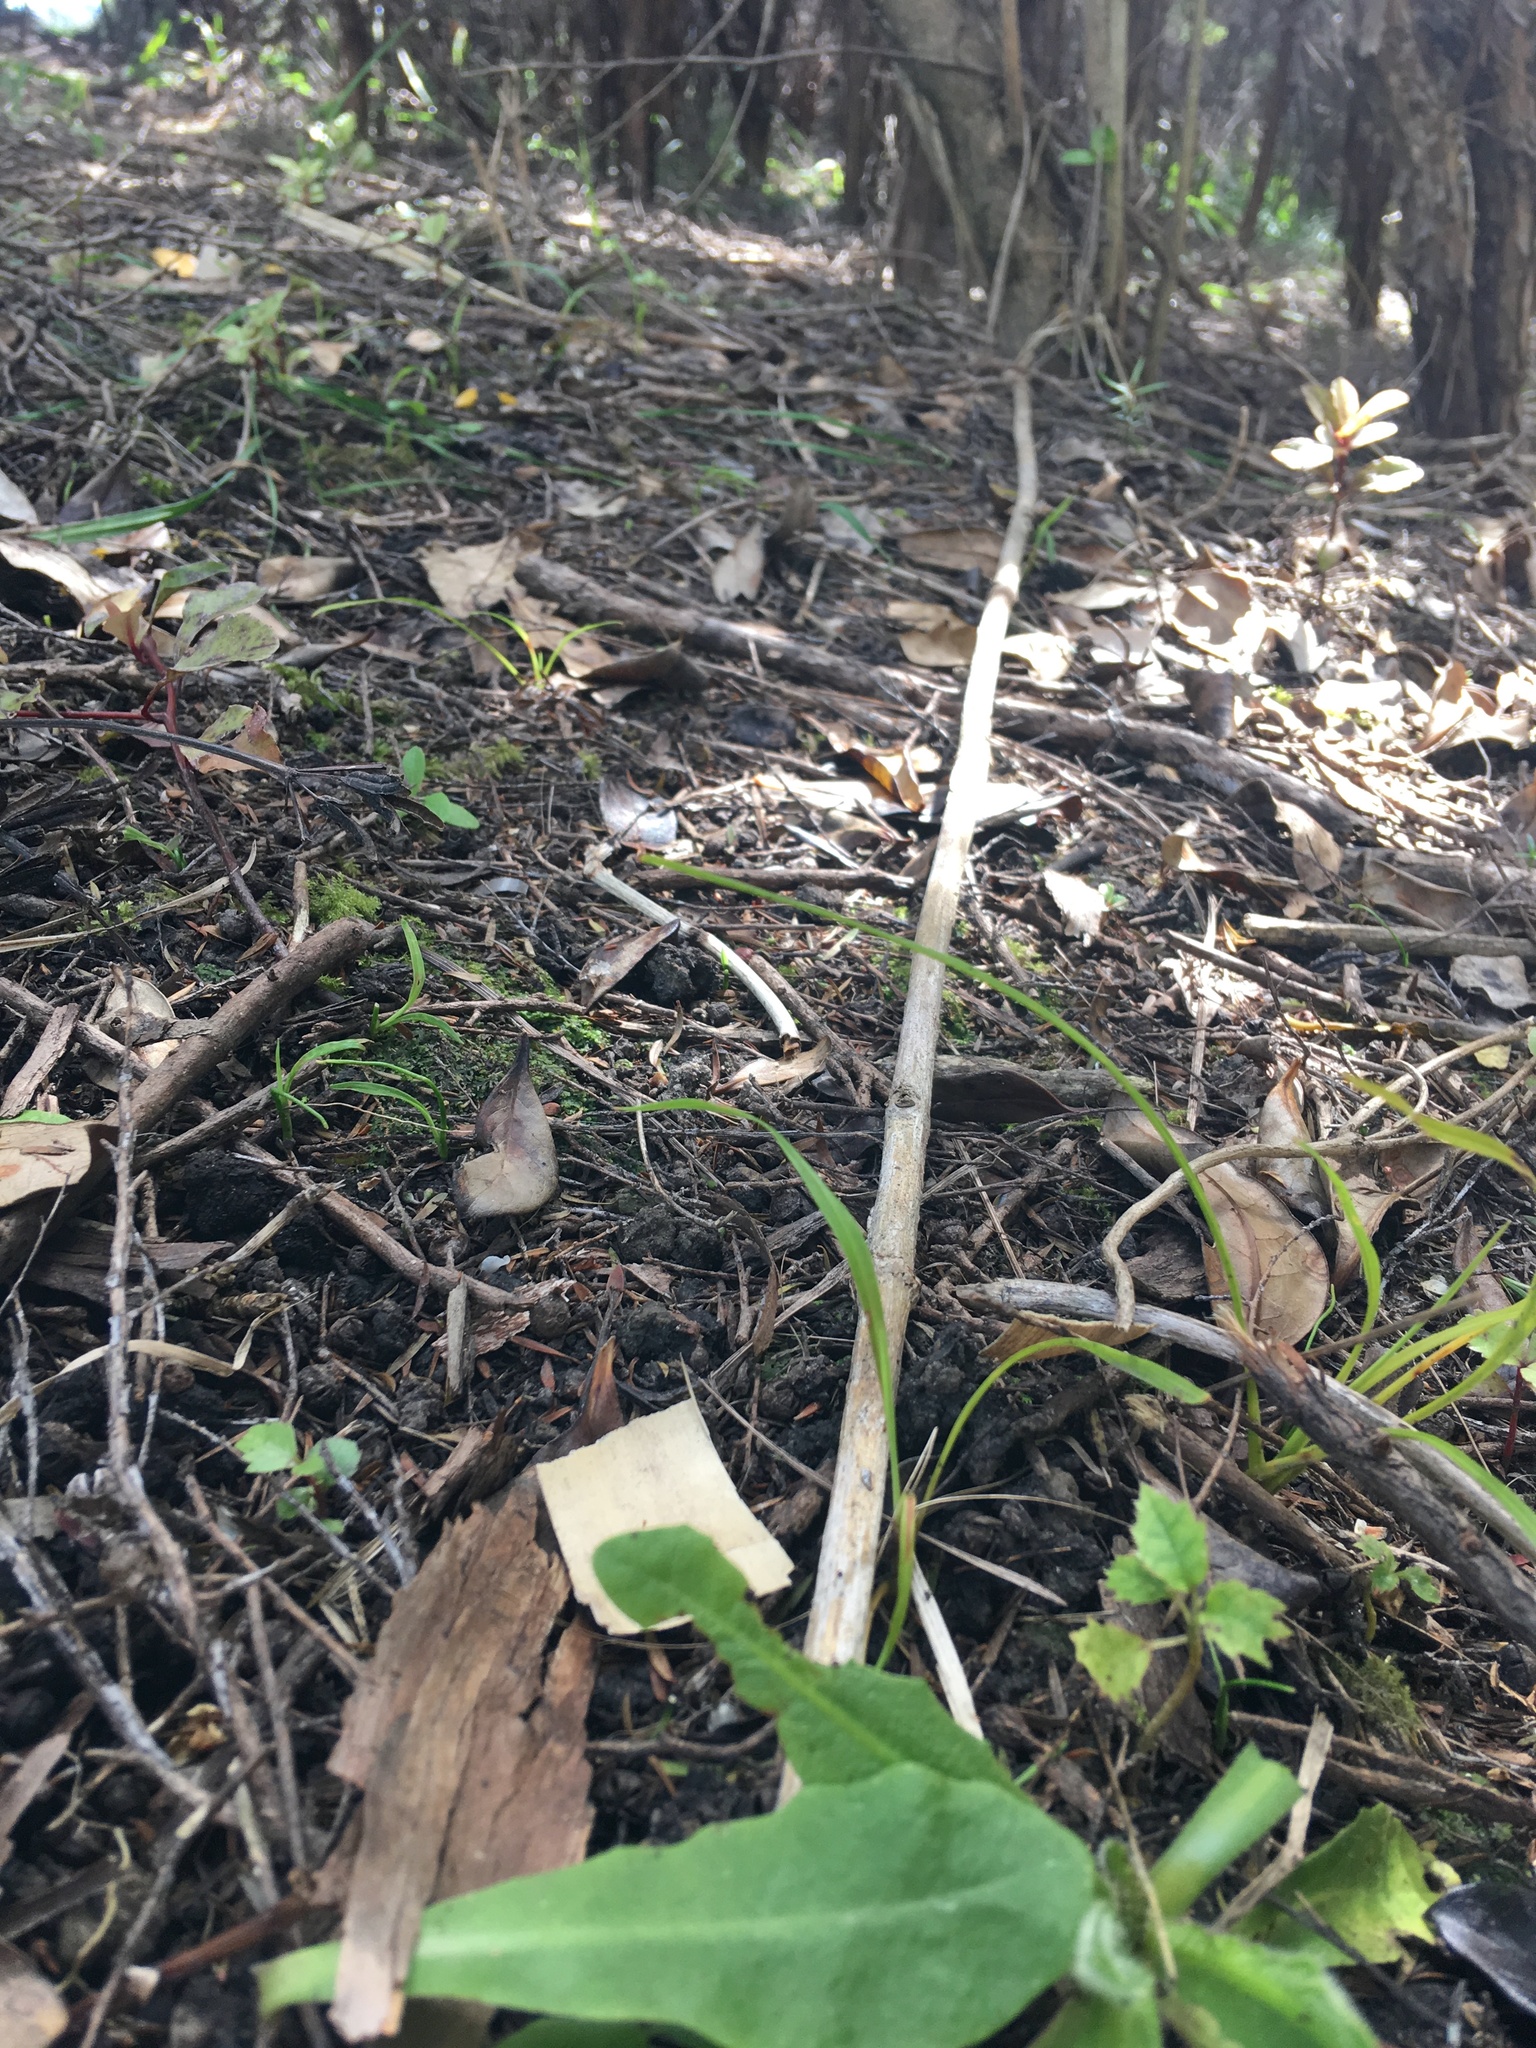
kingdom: Plantae
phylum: Tracheophyta
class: Magnoliopsida
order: Asterales
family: Rousseaceae
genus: Carpodetus
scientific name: Carpodetus serratus
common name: White mapau
